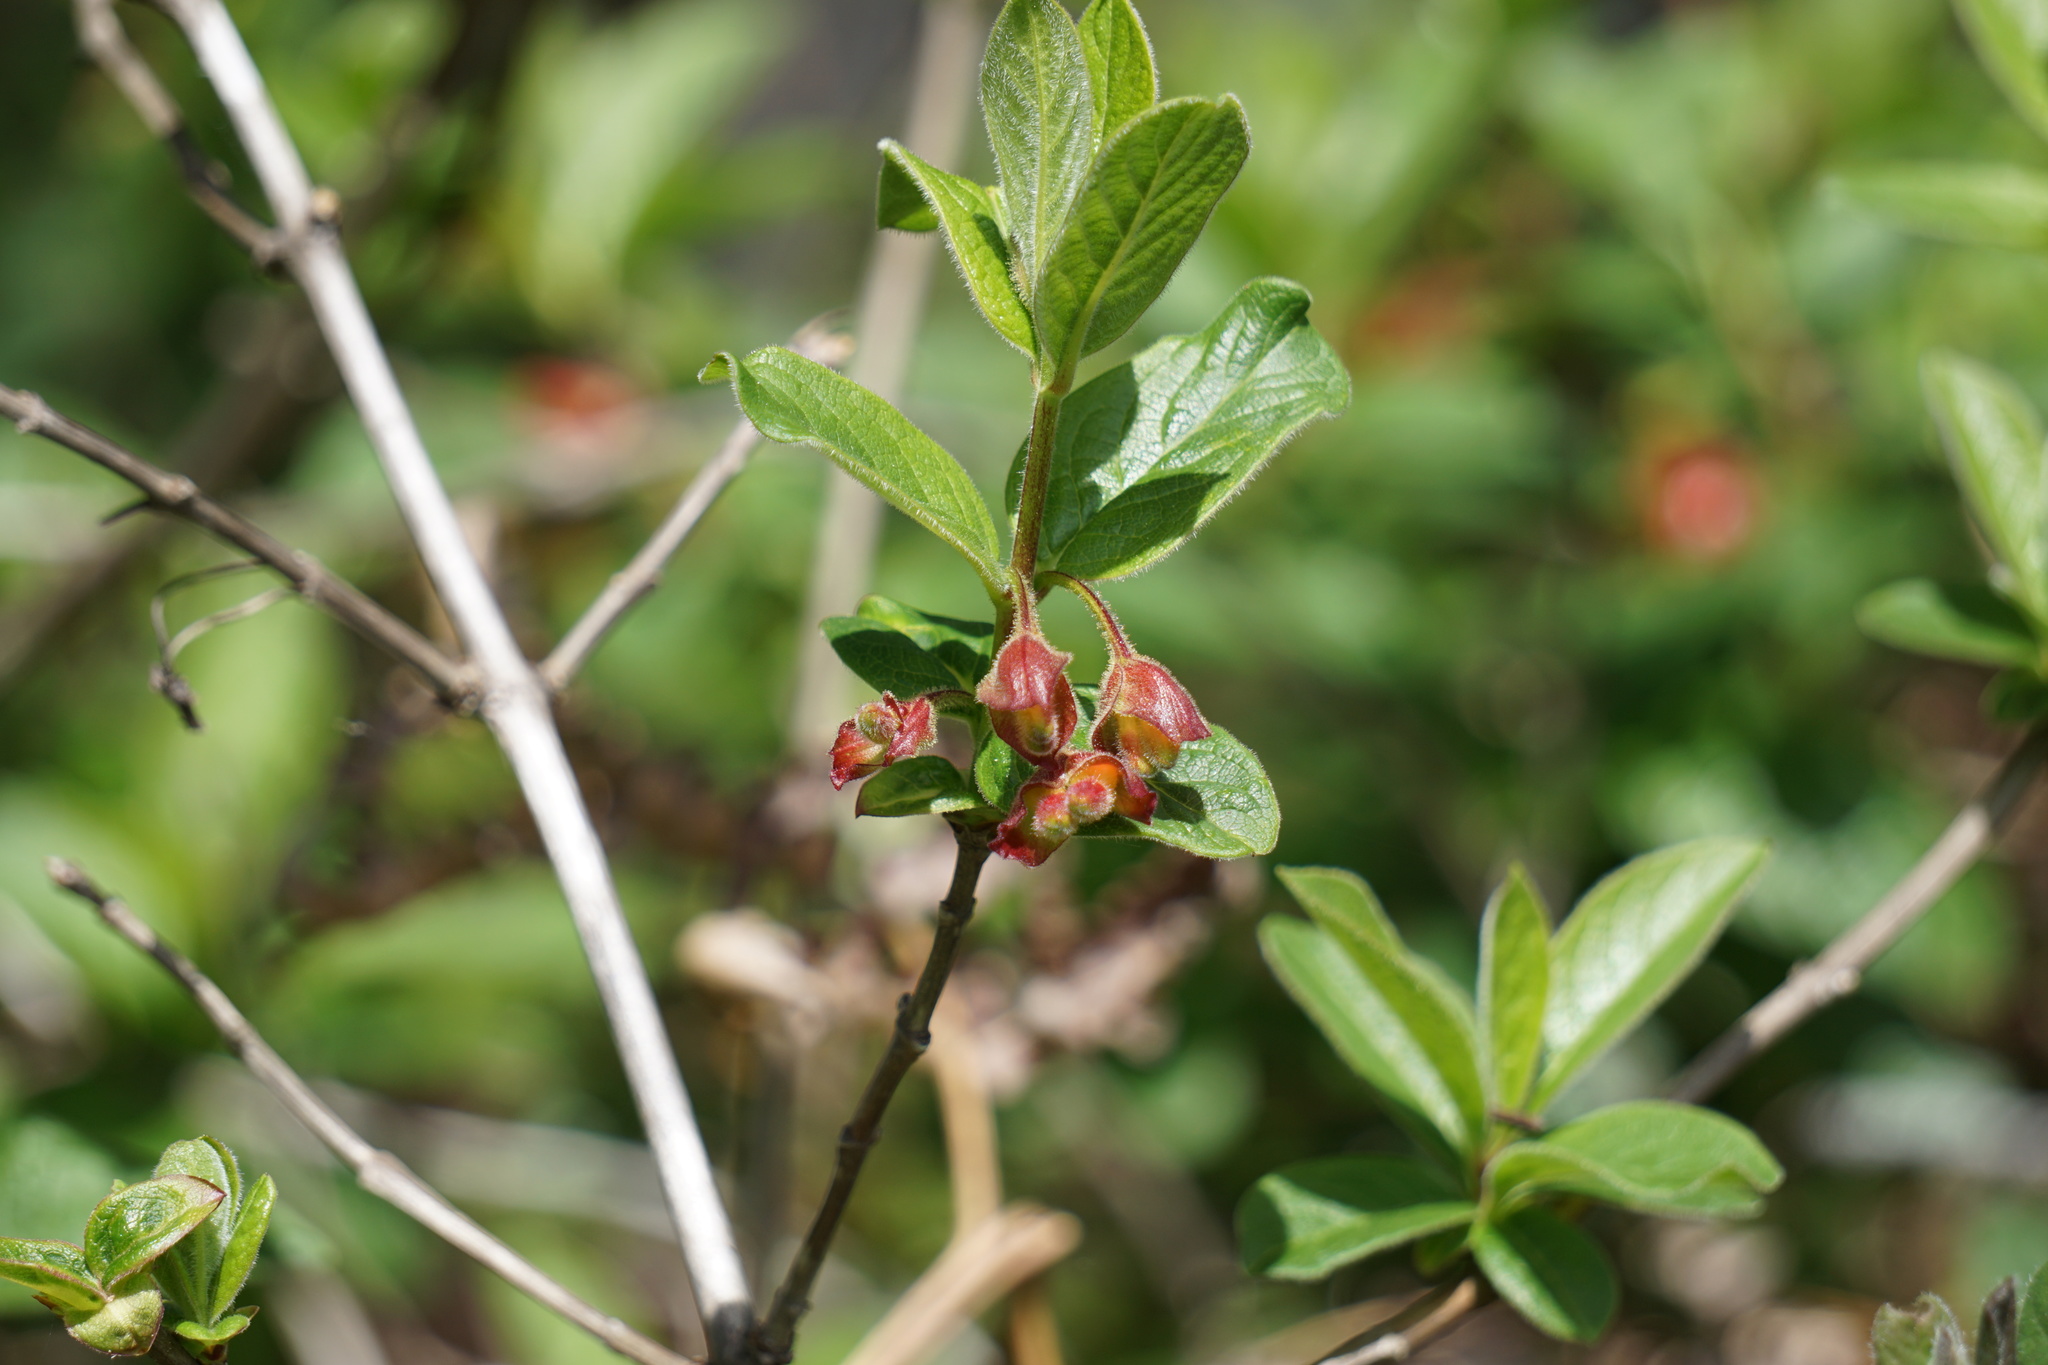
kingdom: Plantae
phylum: Tracheophyta
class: Magnoliopsida
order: Dipsacales
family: Caprifoliaceae
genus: Lonicera
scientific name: Lonicera involucrata
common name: Californian honeysuckle
